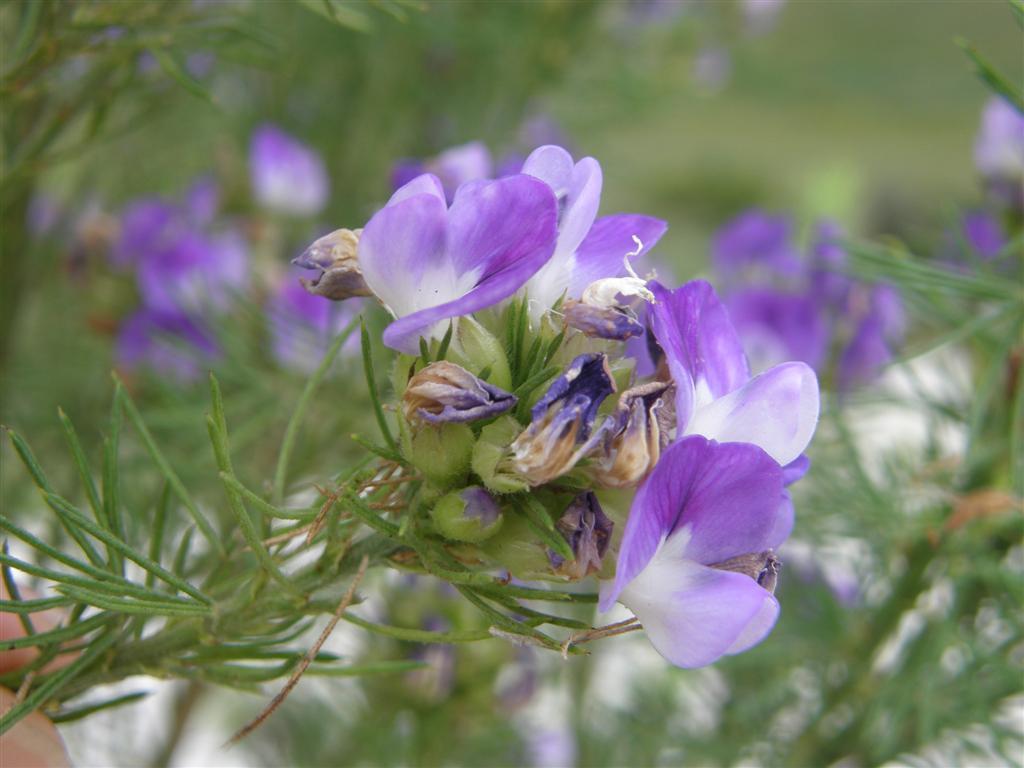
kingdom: Plantae
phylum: Tracheophyta
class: Magnoliopsida
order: Fabales
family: Fabaceae
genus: Psoralea
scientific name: Psoralea ivumba
